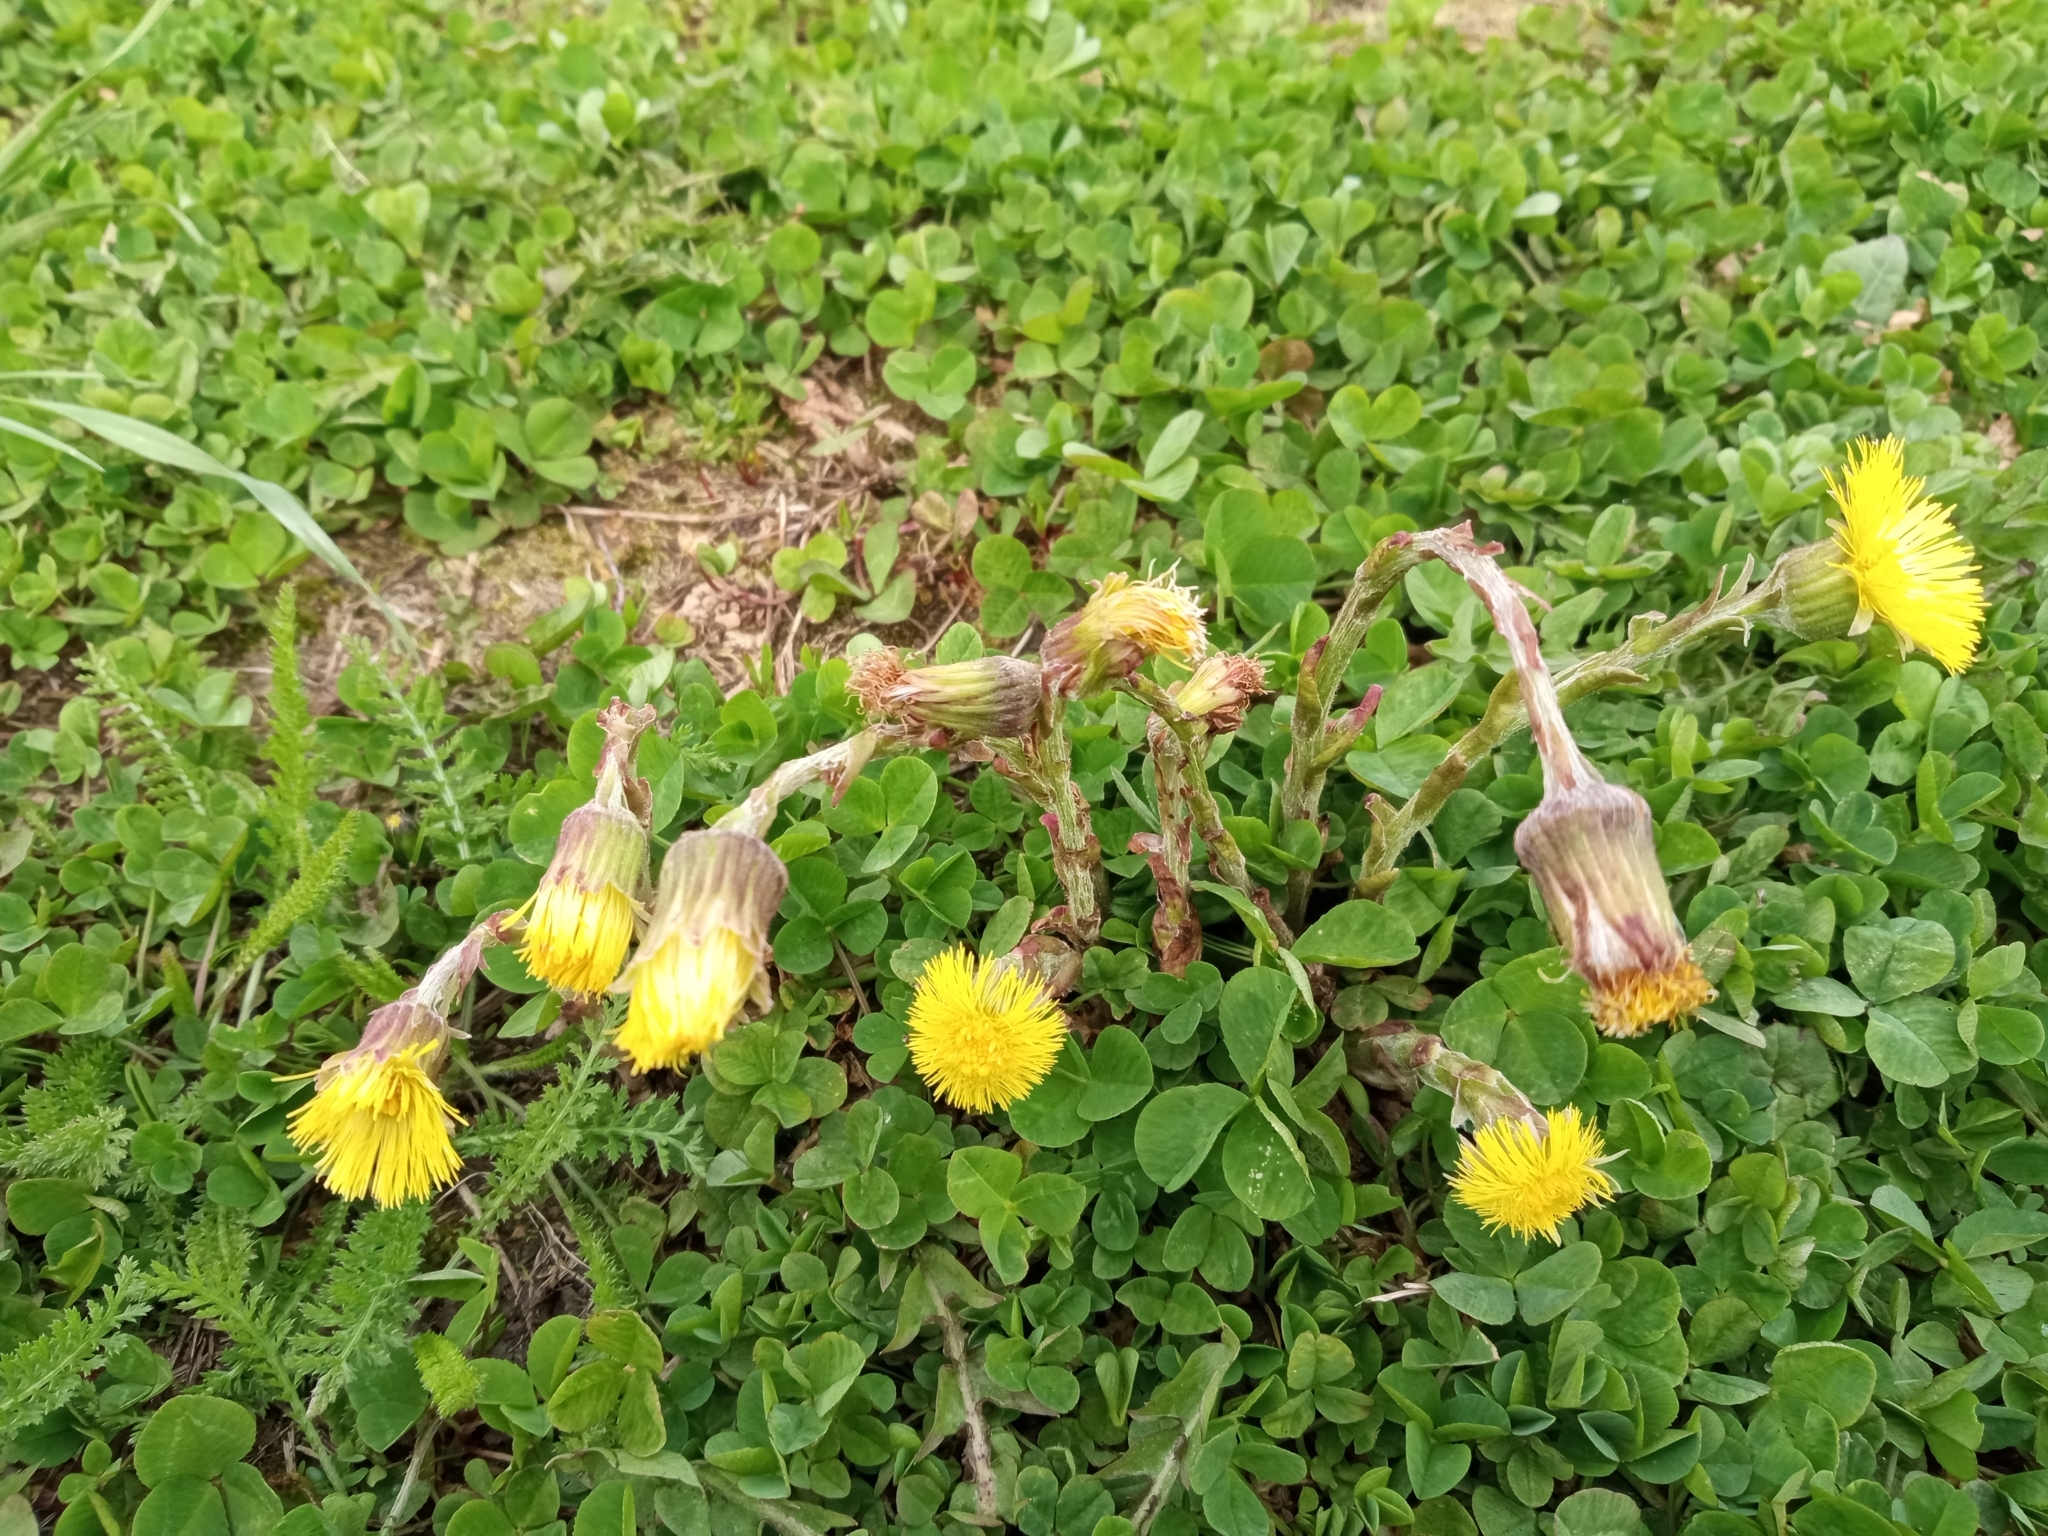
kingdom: Plantae
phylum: Tracheophyta
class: Magnoliopsida
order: Asterales
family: Asteraceae
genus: Tussilago
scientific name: Tussilago farfara
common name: Coltsfoot
